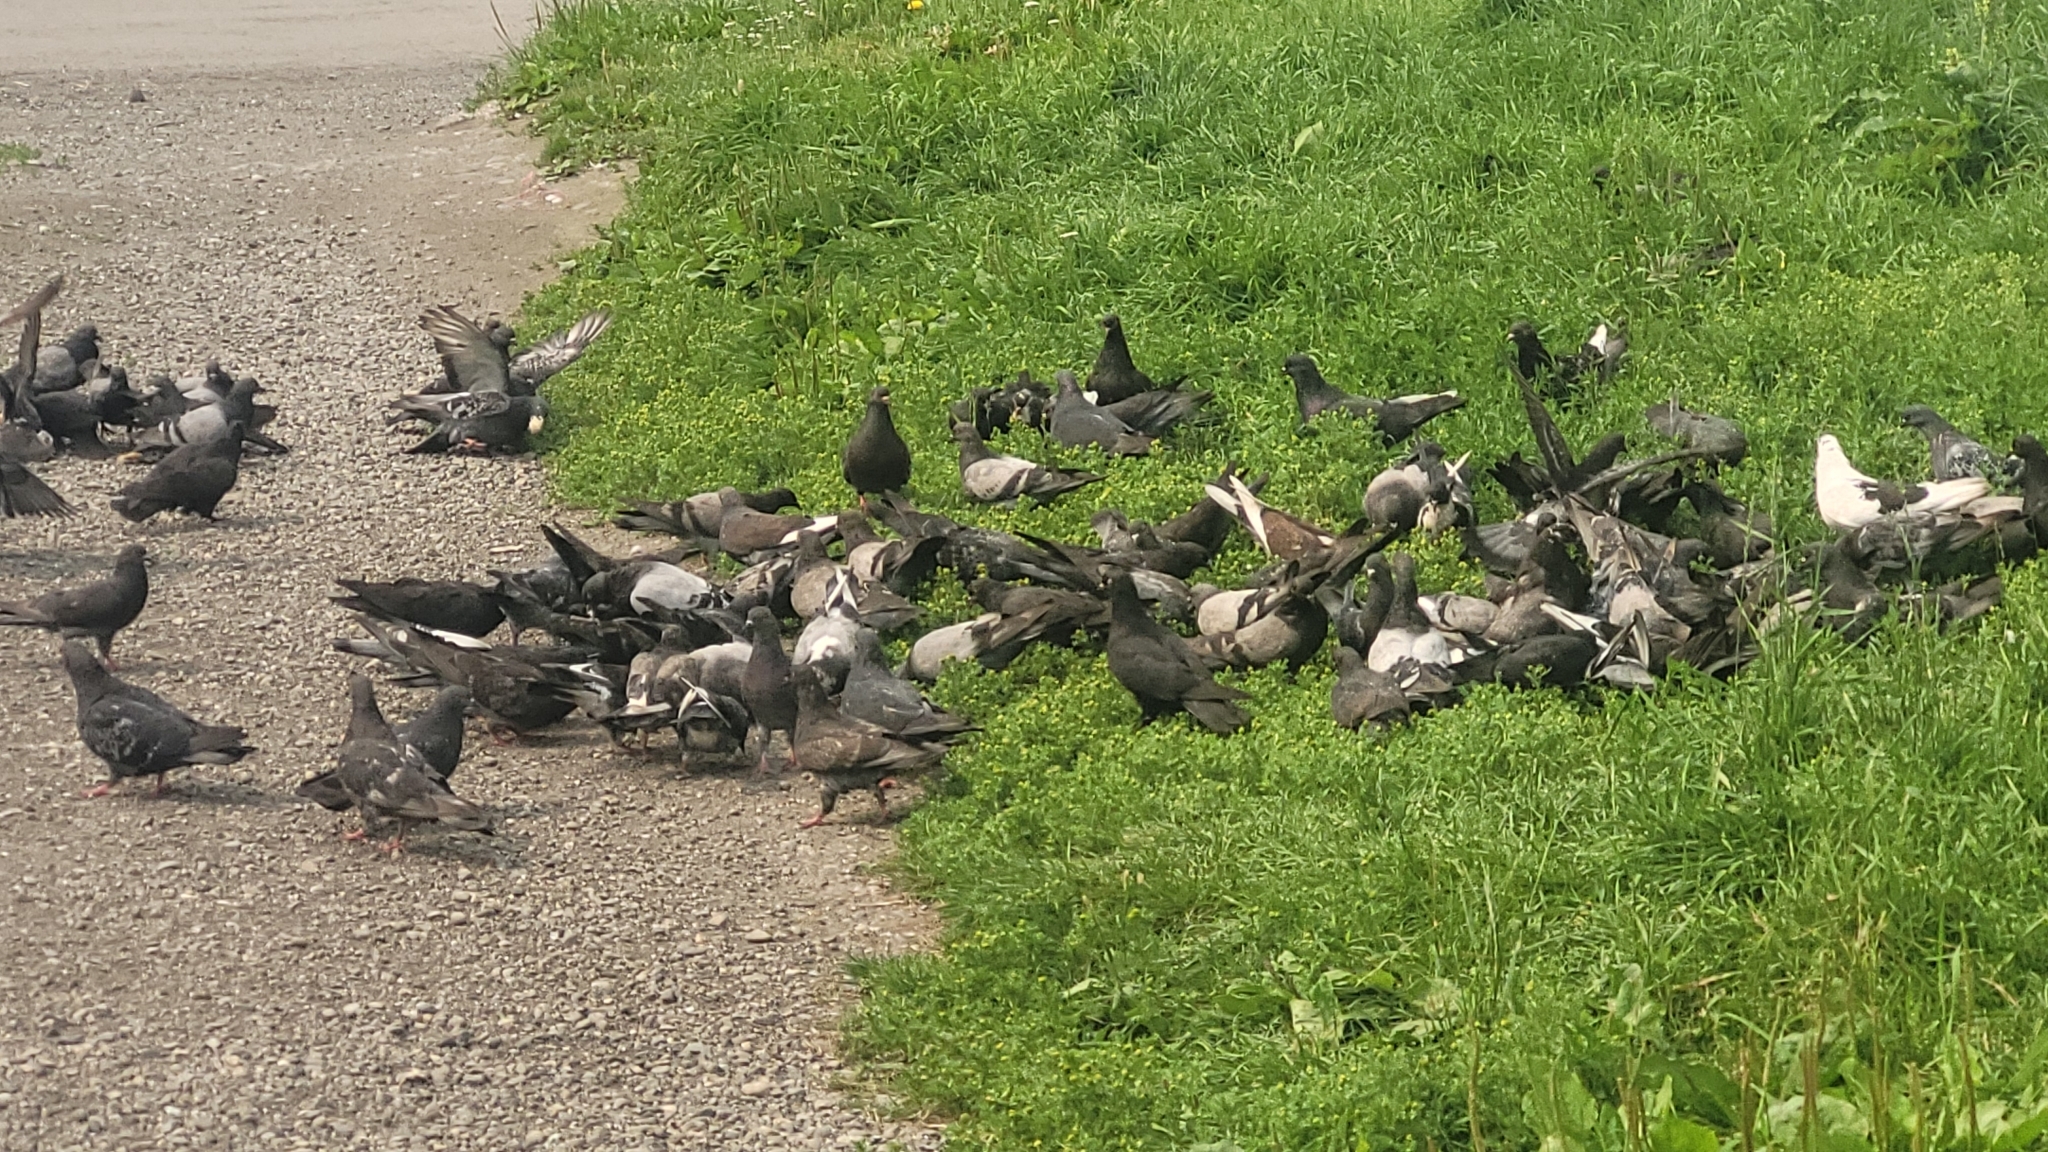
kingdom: Animalia
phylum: Chordata
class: Aves
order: Columbiformes
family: Columbidae
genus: Columba
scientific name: Columba livia
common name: Rock pigeon
